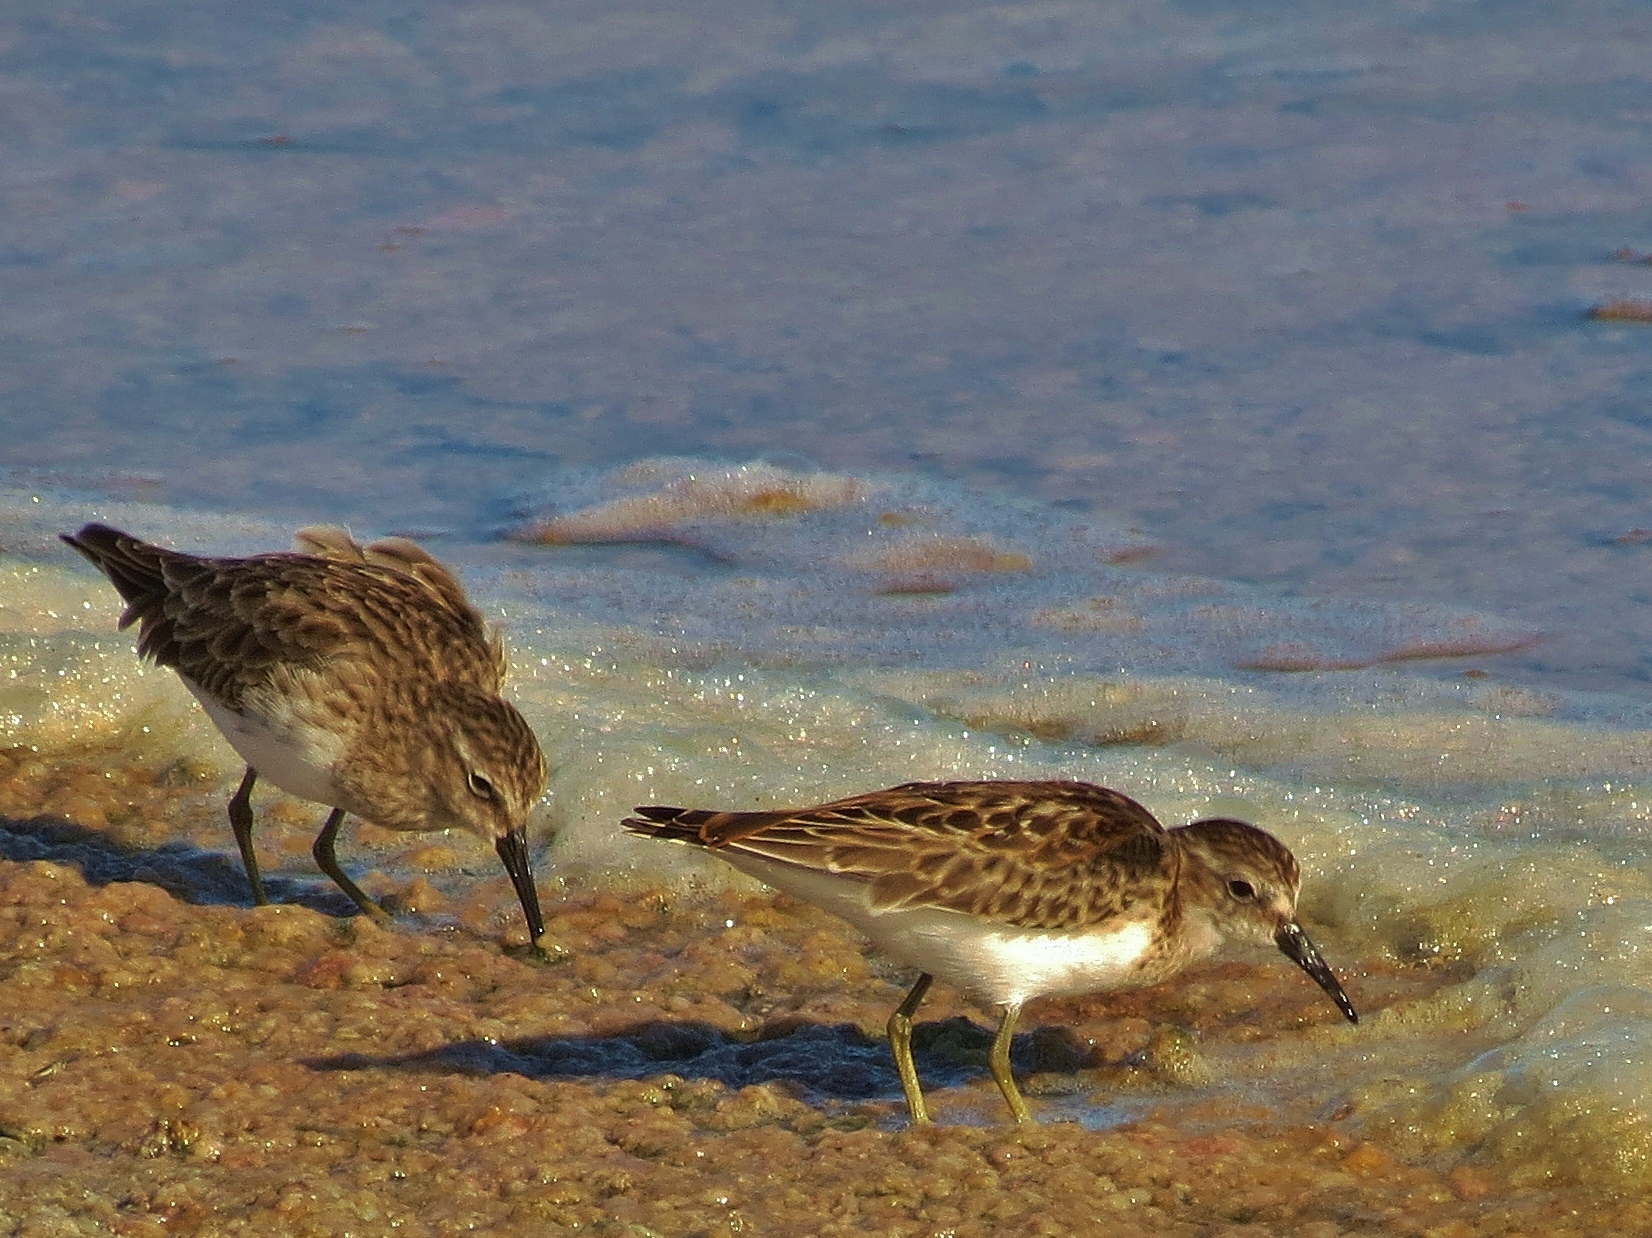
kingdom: Animalia
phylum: Chordata
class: Aves
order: Charadriiformes
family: Scolopacidae
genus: Calidris
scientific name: Calidris minutilla
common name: Least sandpiper
